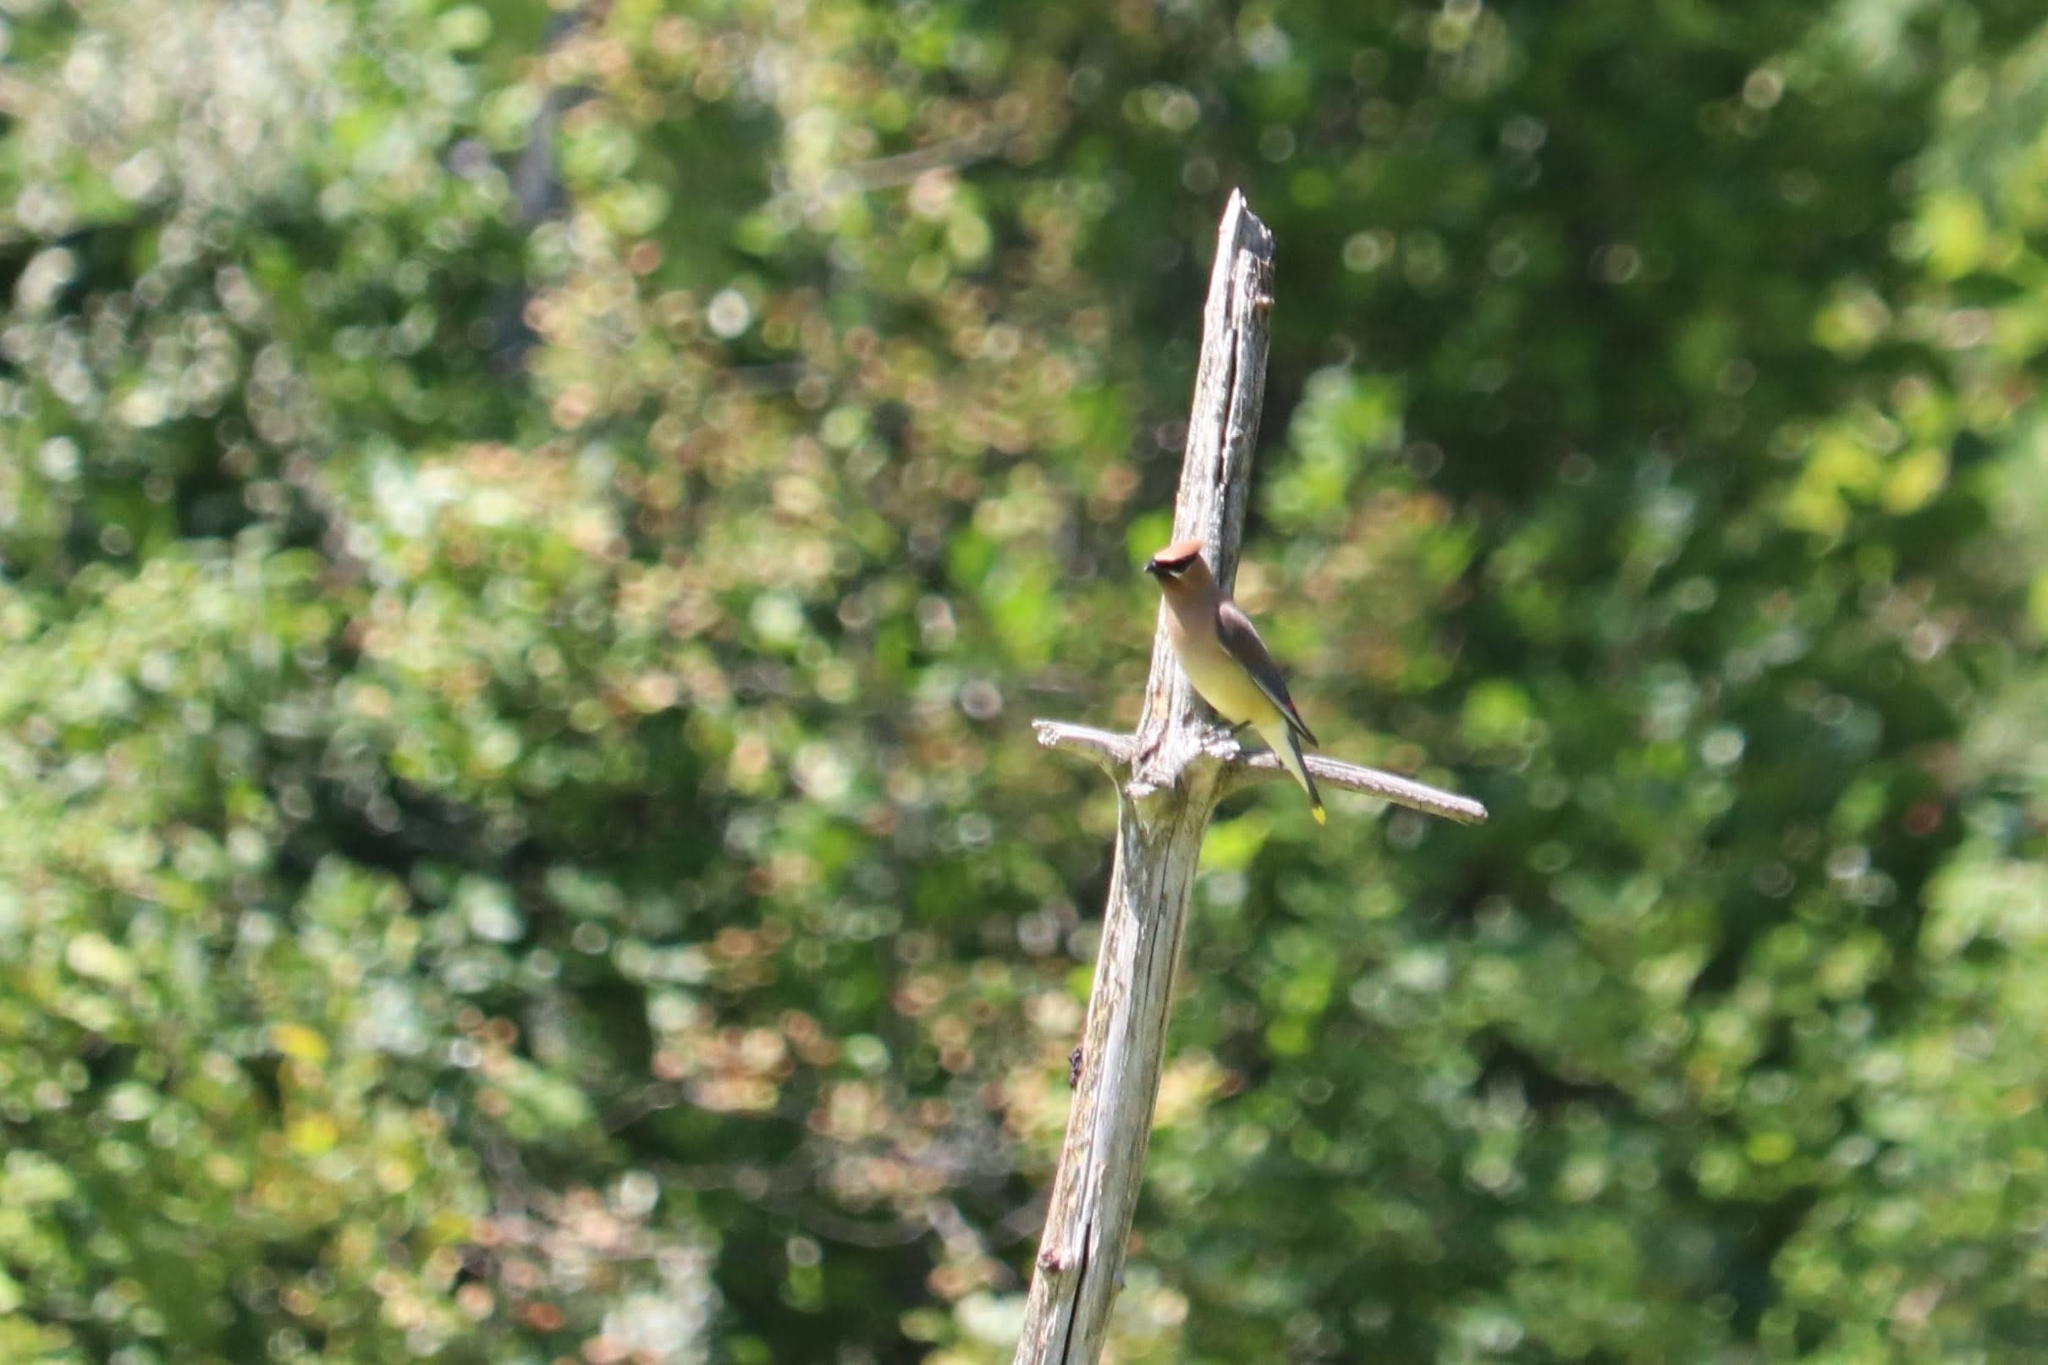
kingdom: Animalia
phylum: Chordata
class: Aves
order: Passeriformes
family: Bombycillidae
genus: Bombycilla
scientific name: Bombycilla cedrorum
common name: Cedar waxwing
